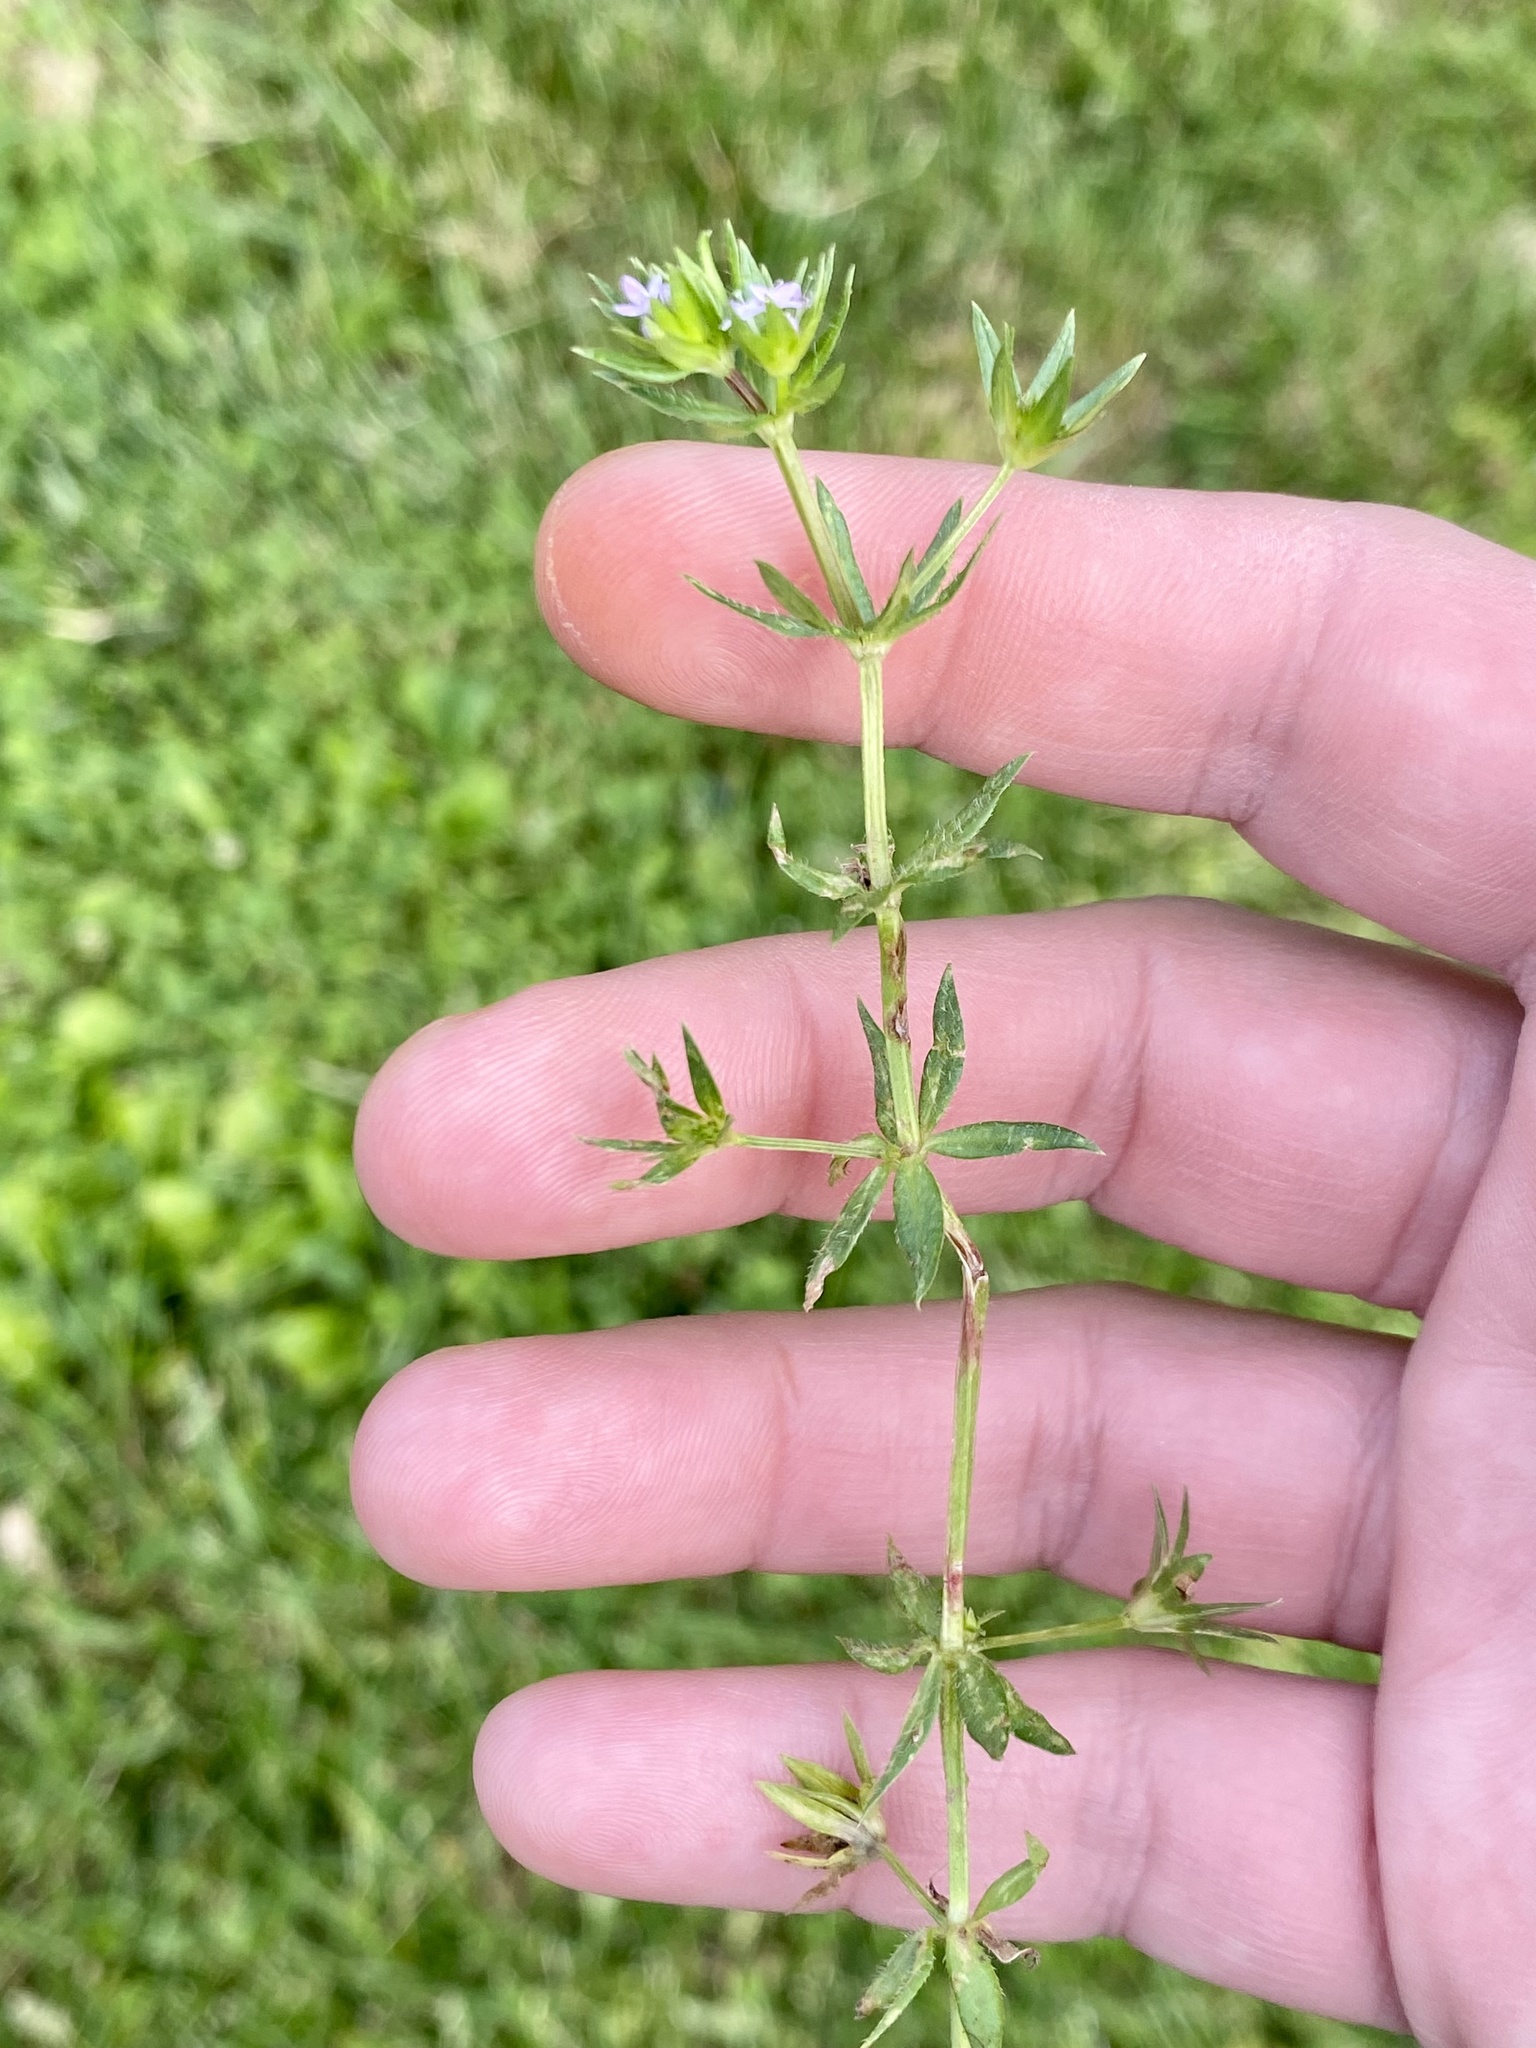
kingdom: Plantae
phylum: Tracheophyta
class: Magnoliopsida
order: Gentianales
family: Rubiaceae
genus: Sherardia
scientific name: Sherardia arvensis
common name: Field madder
